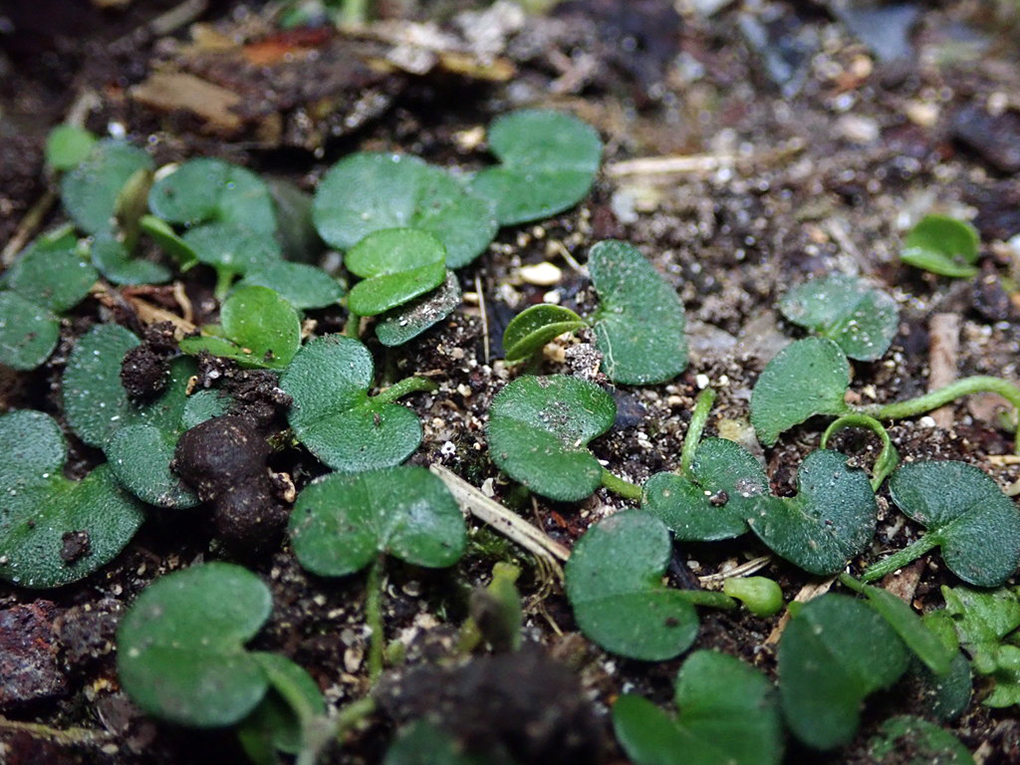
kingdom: Plantae
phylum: Tracheophyta
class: Magnoliopsida
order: Solanales
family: Convolvulaceae
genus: Dichondra
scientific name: Dichondra brevifolia
